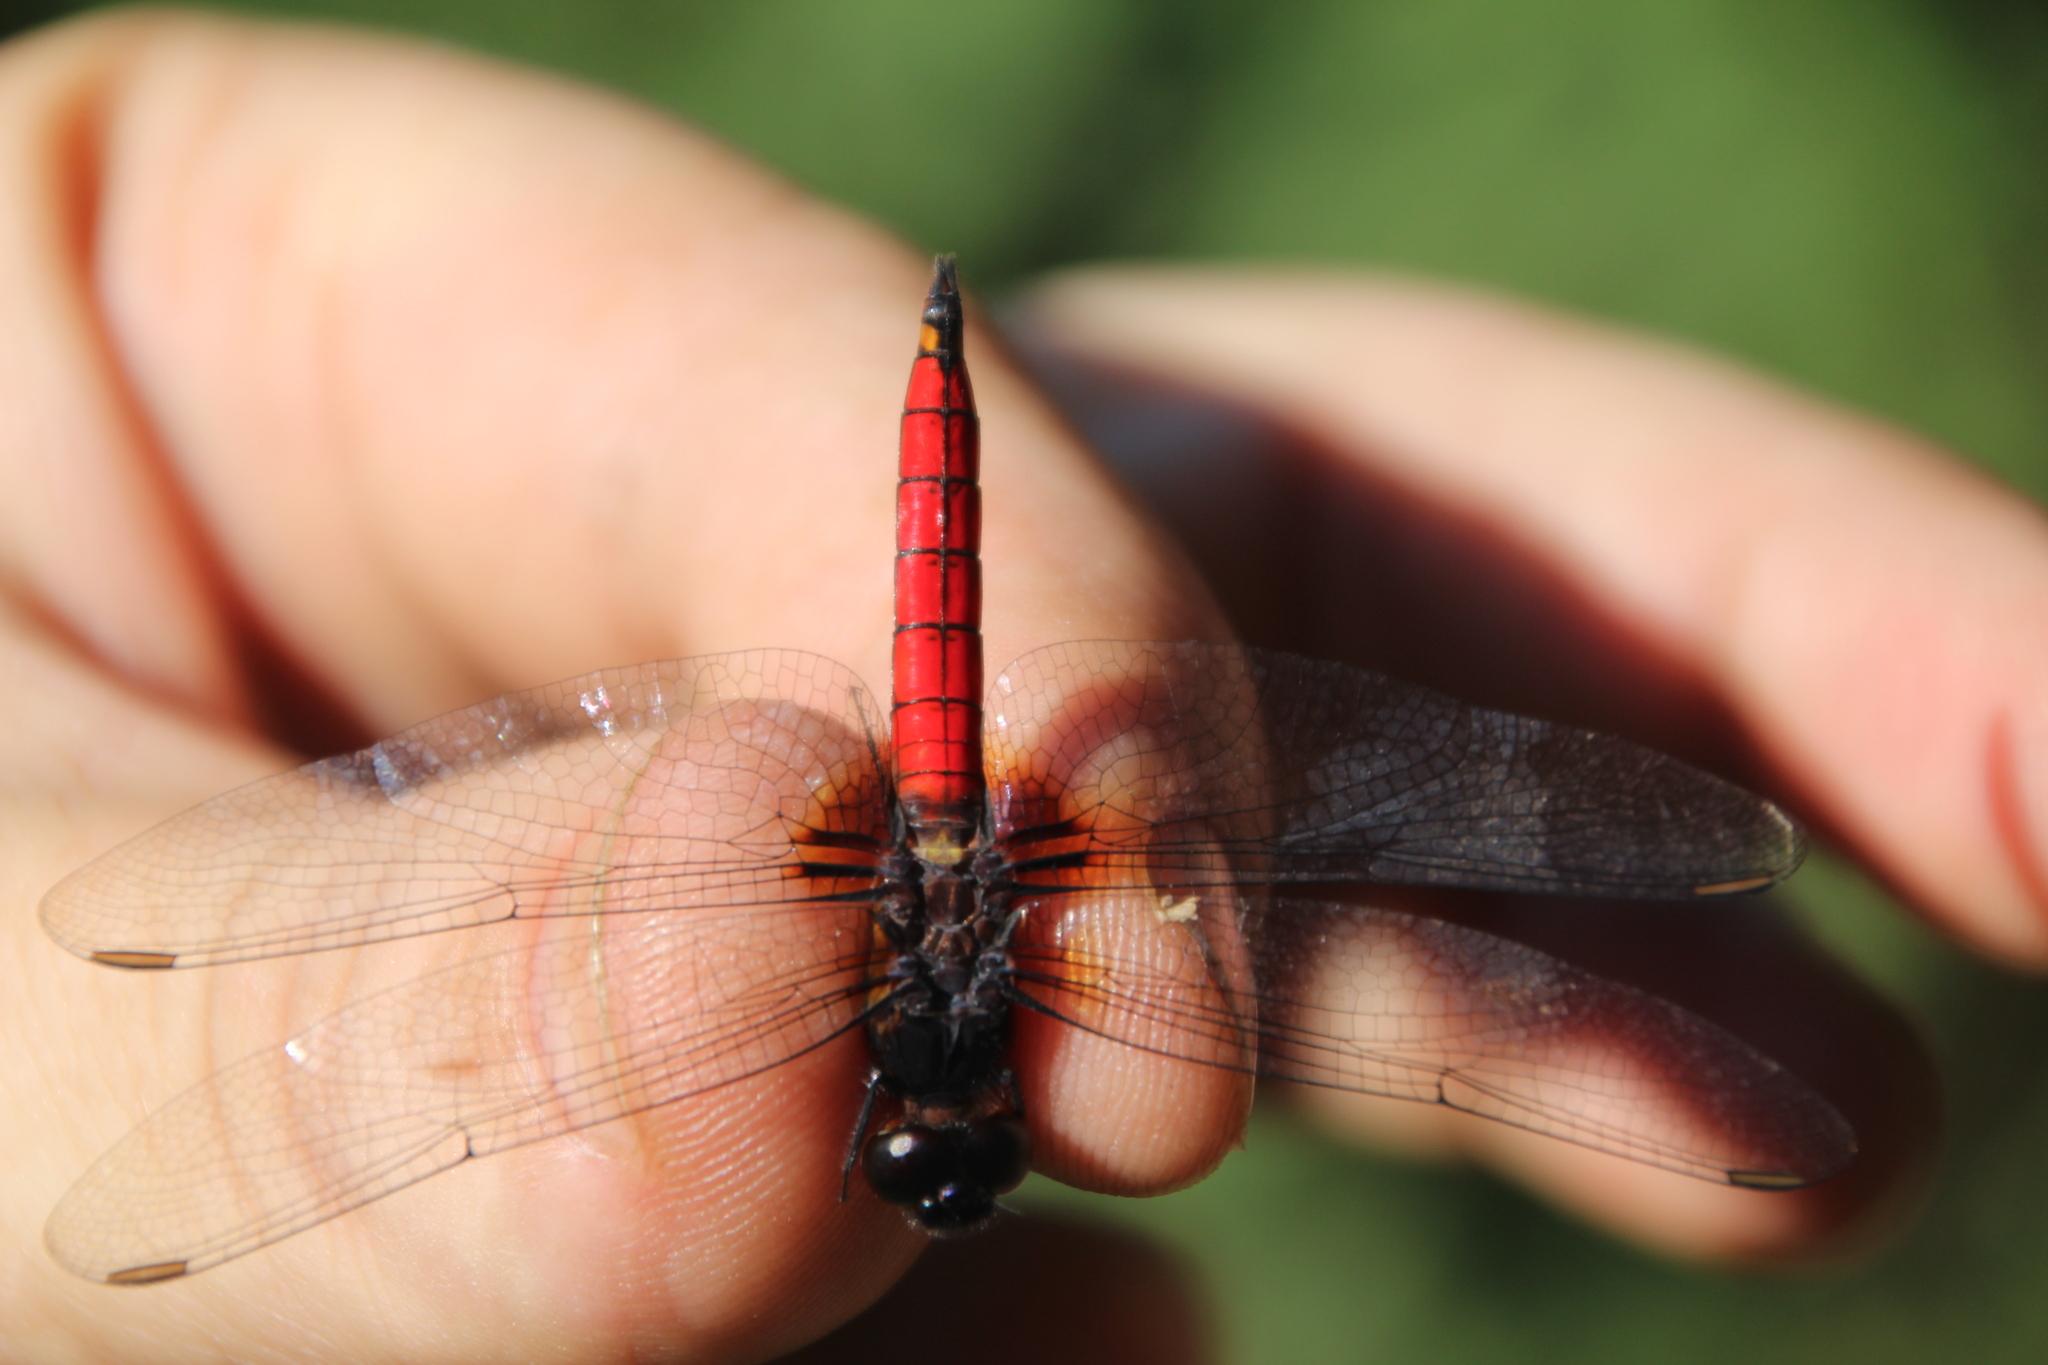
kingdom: Animalia
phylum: Arthropoda
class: Insecta
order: Odonata
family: Libellulidae
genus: Hadrothemis
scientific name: Hadrothemis defecta
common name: Scarlet jungleskimmer
